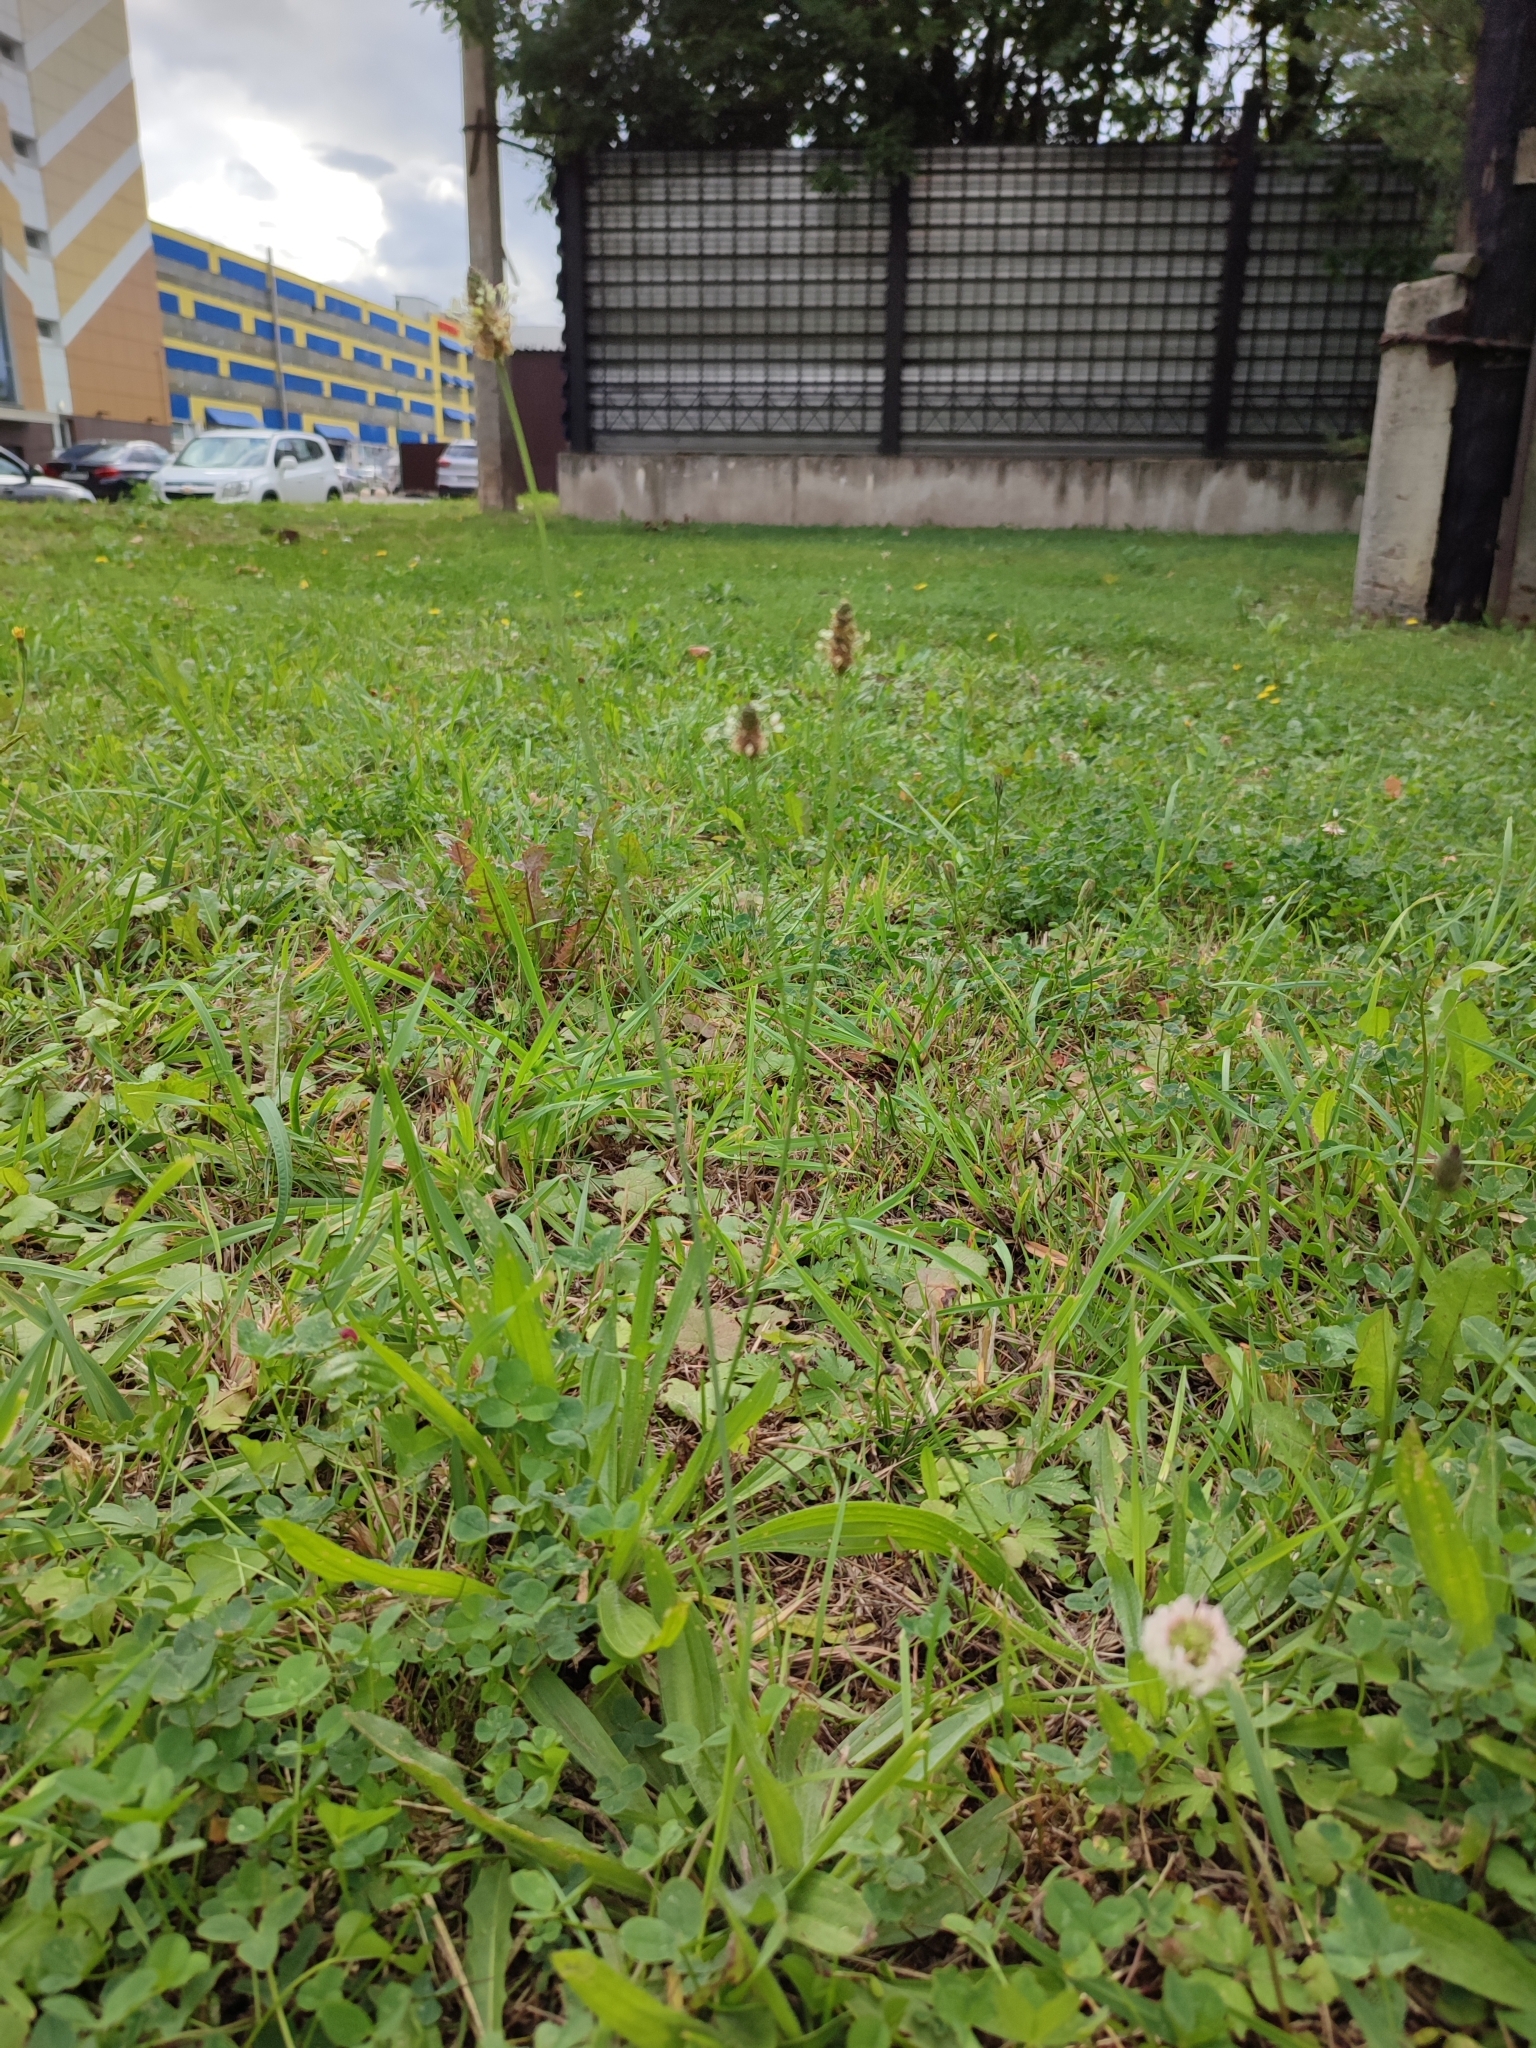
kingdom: Plantae
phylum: Tracheophyta
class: Magnoliopsida
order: Lamiales
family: Plantaginaceae
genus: Plantago
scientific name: Plantago lanceolata
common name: Ribwort plantain
